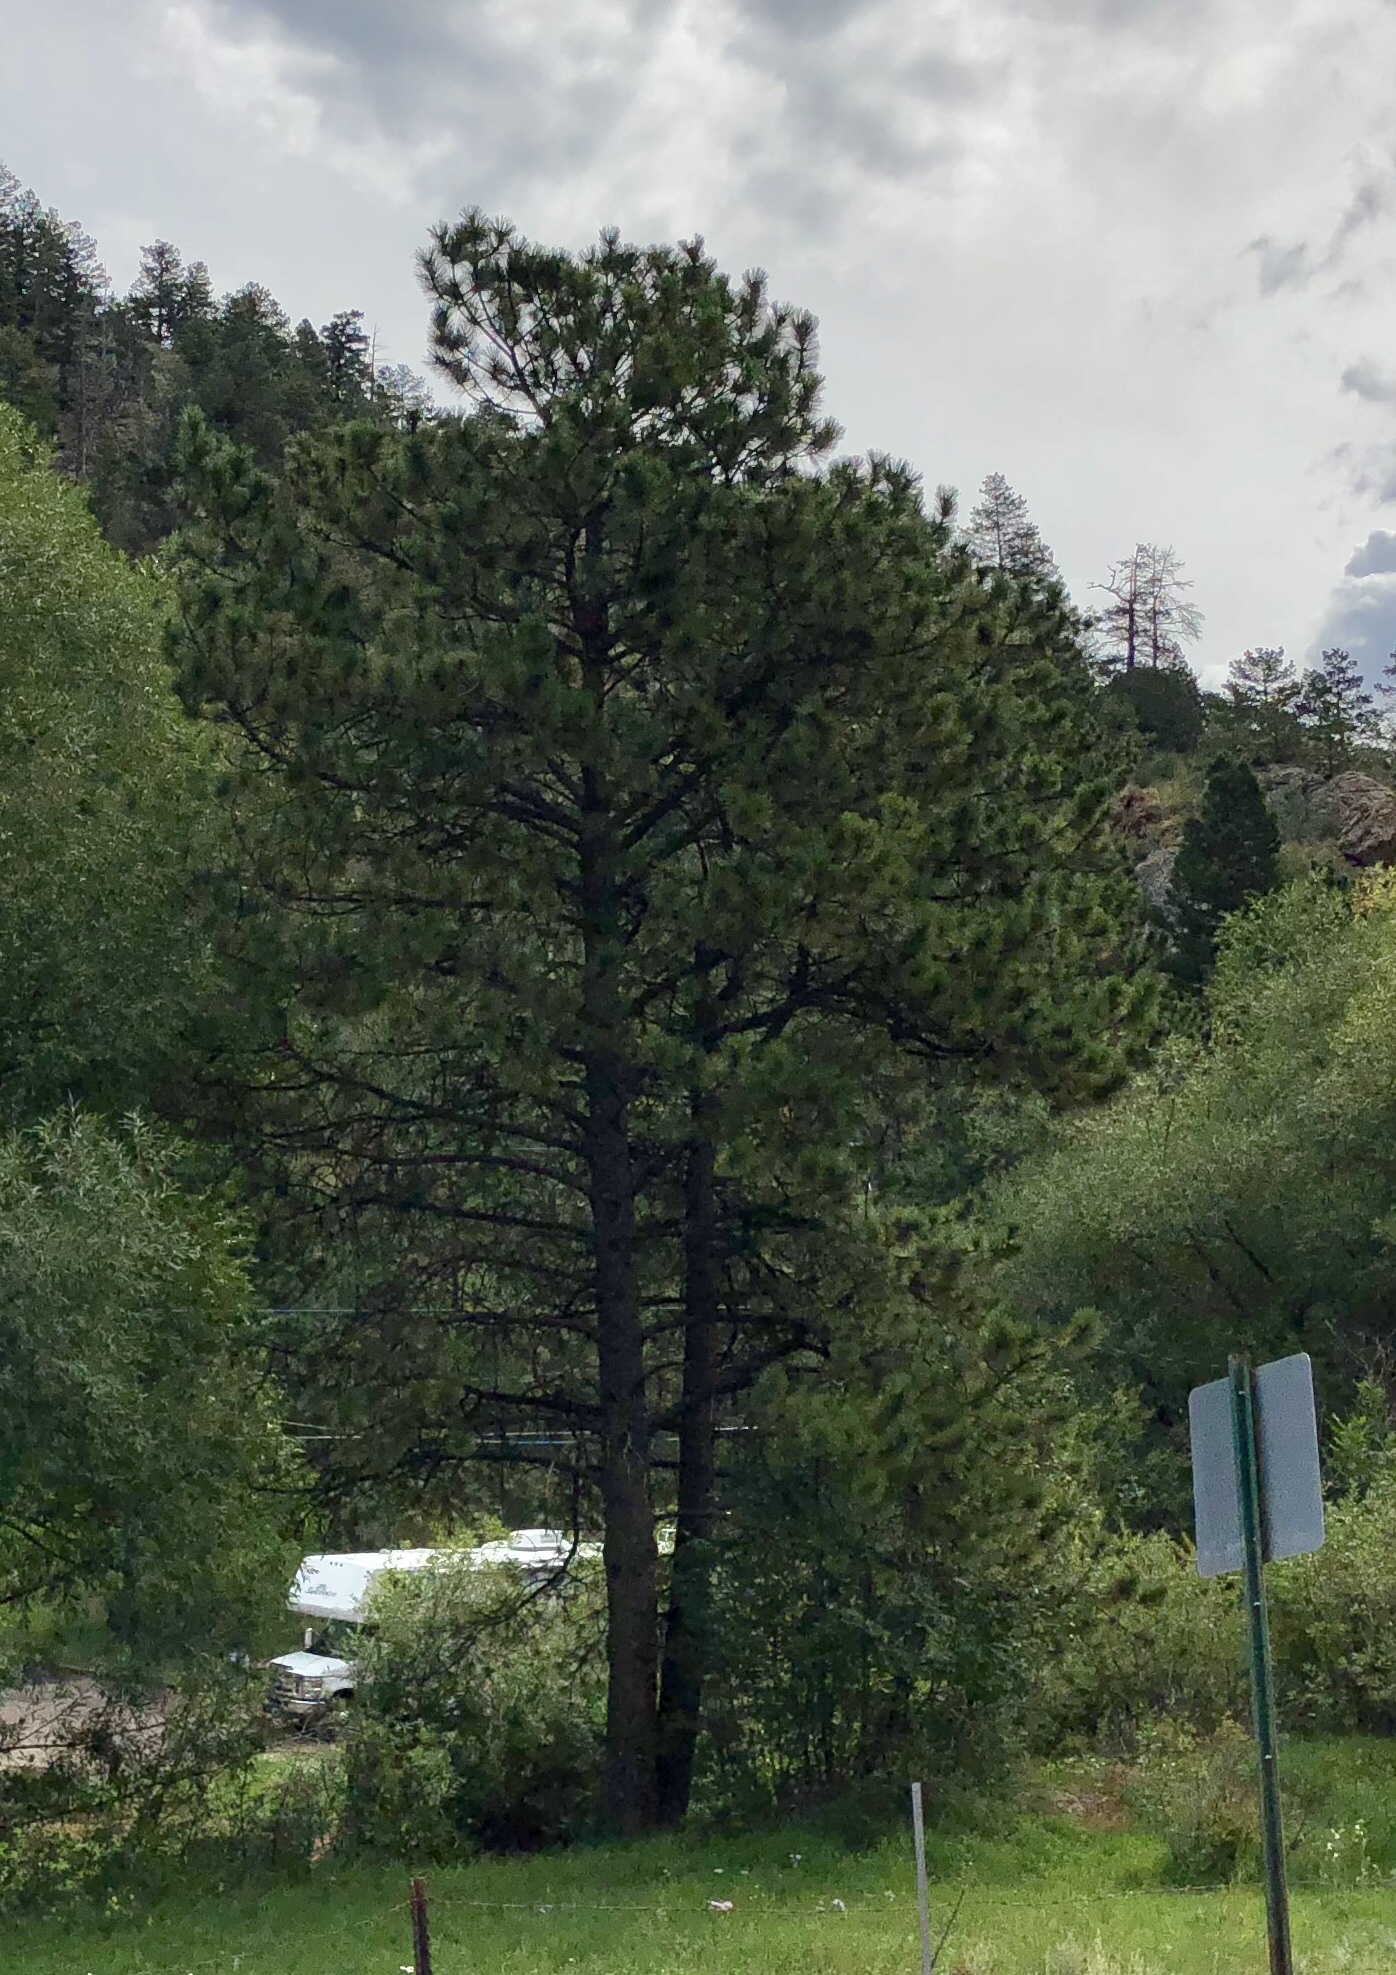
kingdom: Plantae
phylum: Tracheophyta
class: Pinopsida
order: Pinales
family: Pinaceae
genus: Pinus
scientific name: Pinus ponderosa
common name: Western yellow-pine
